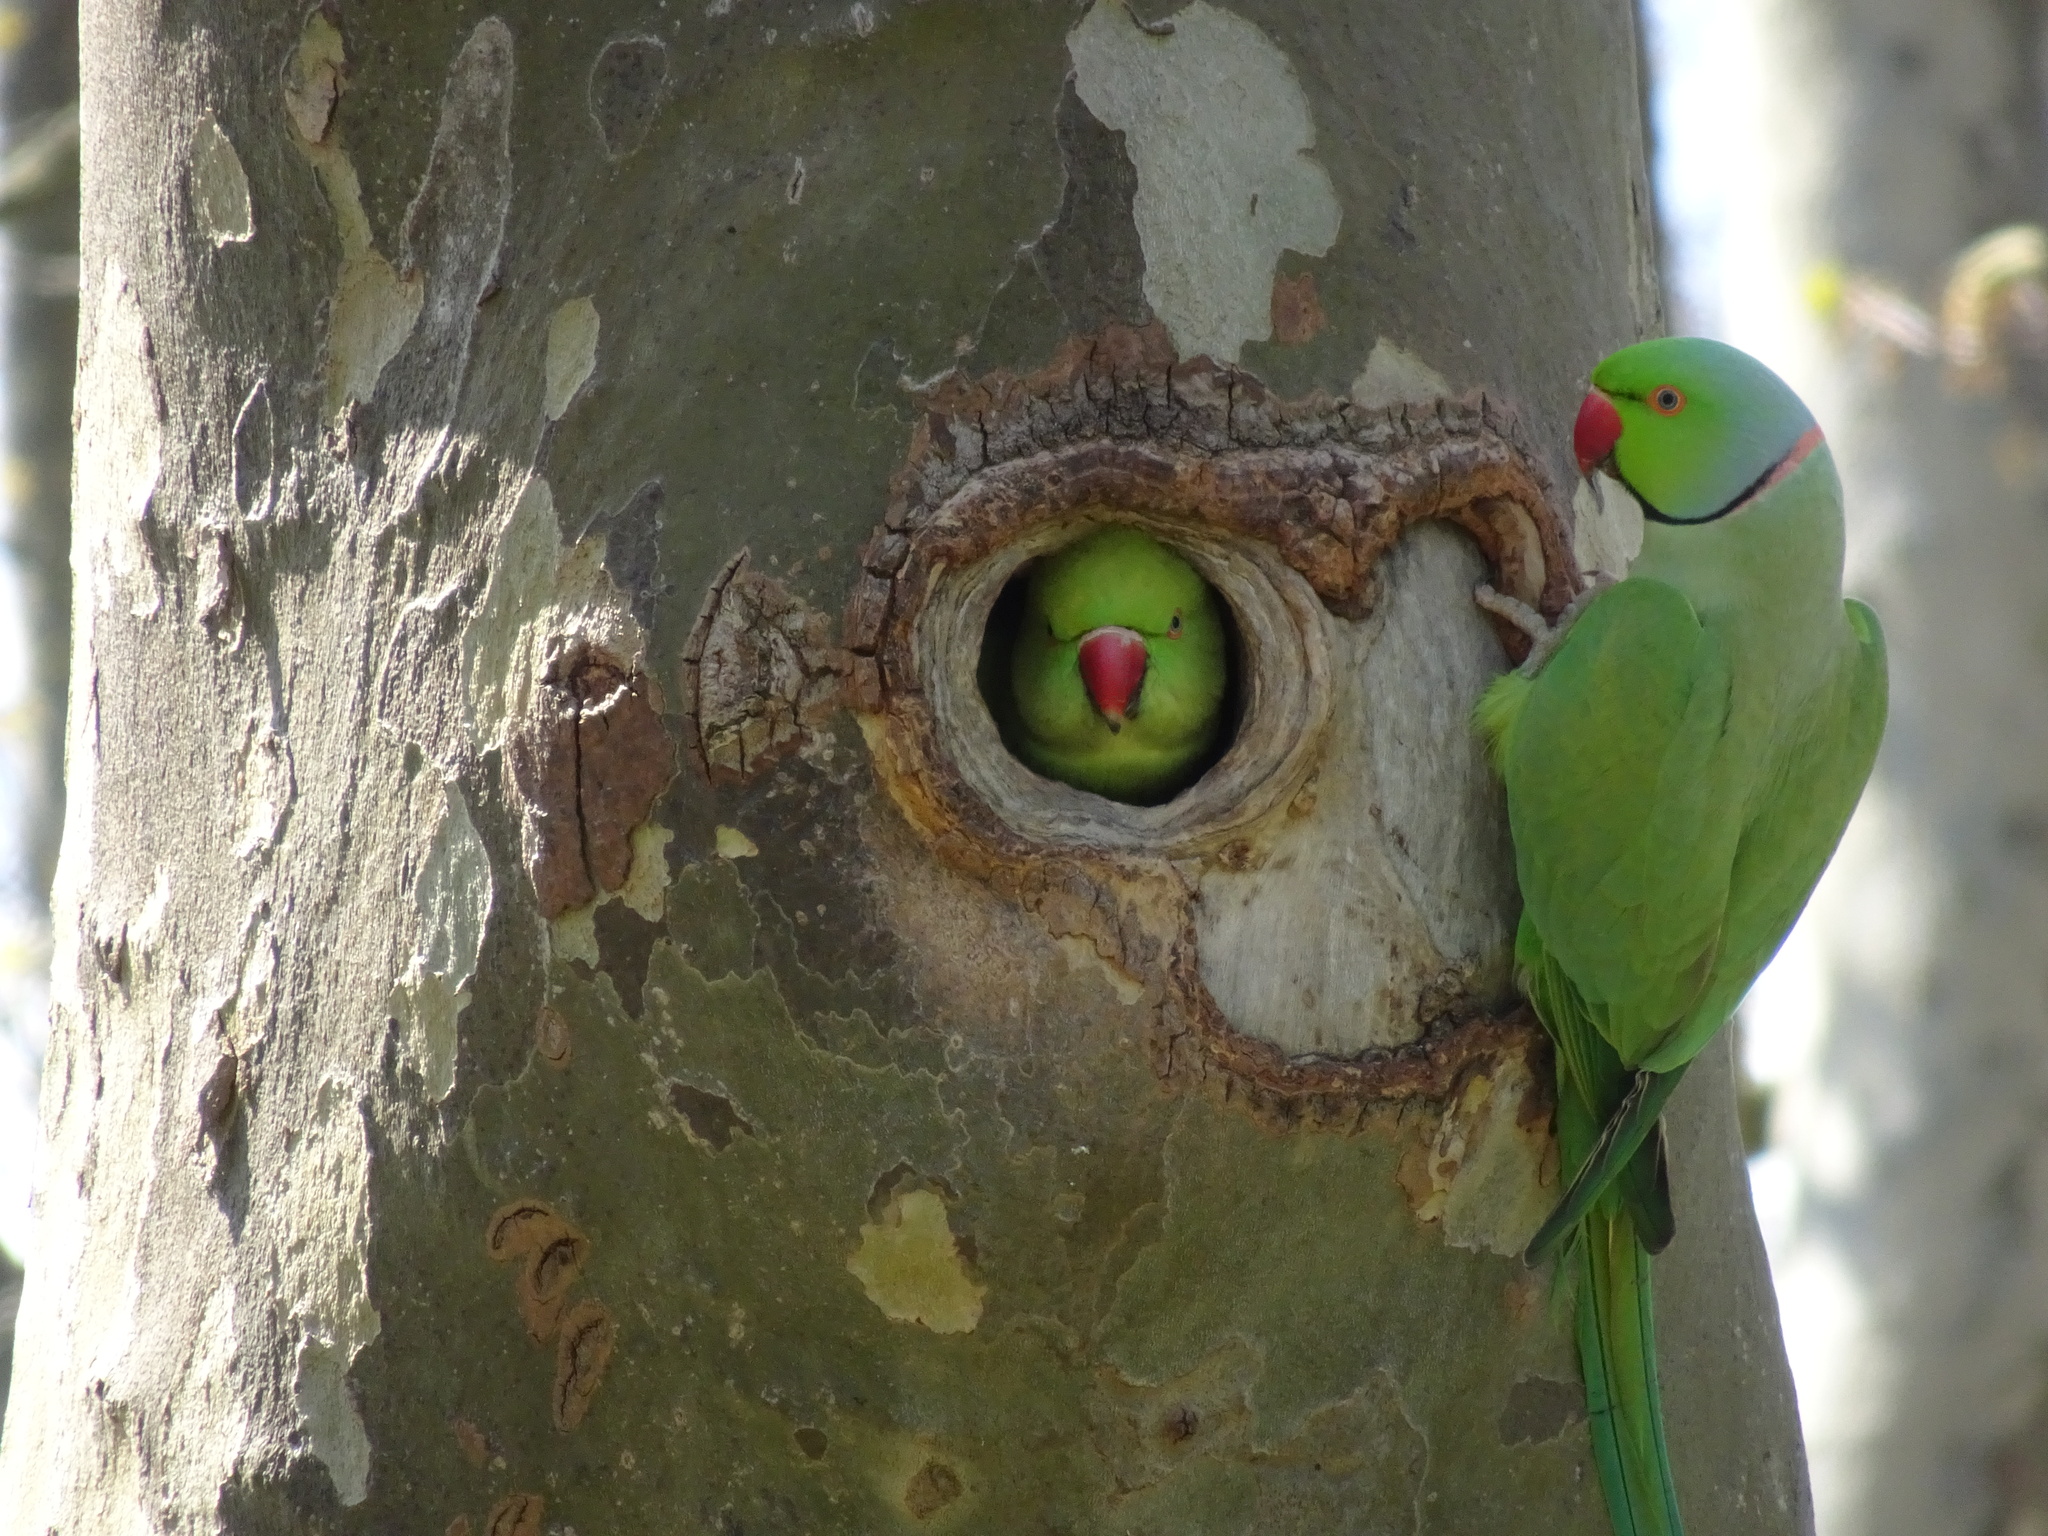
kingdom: Animalia
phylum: Chordata
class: Aves
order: Psittaciformes
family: Psittacidae
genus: Psittacula
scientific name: Psittacula krameri
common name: Rose-ringed parakeet
